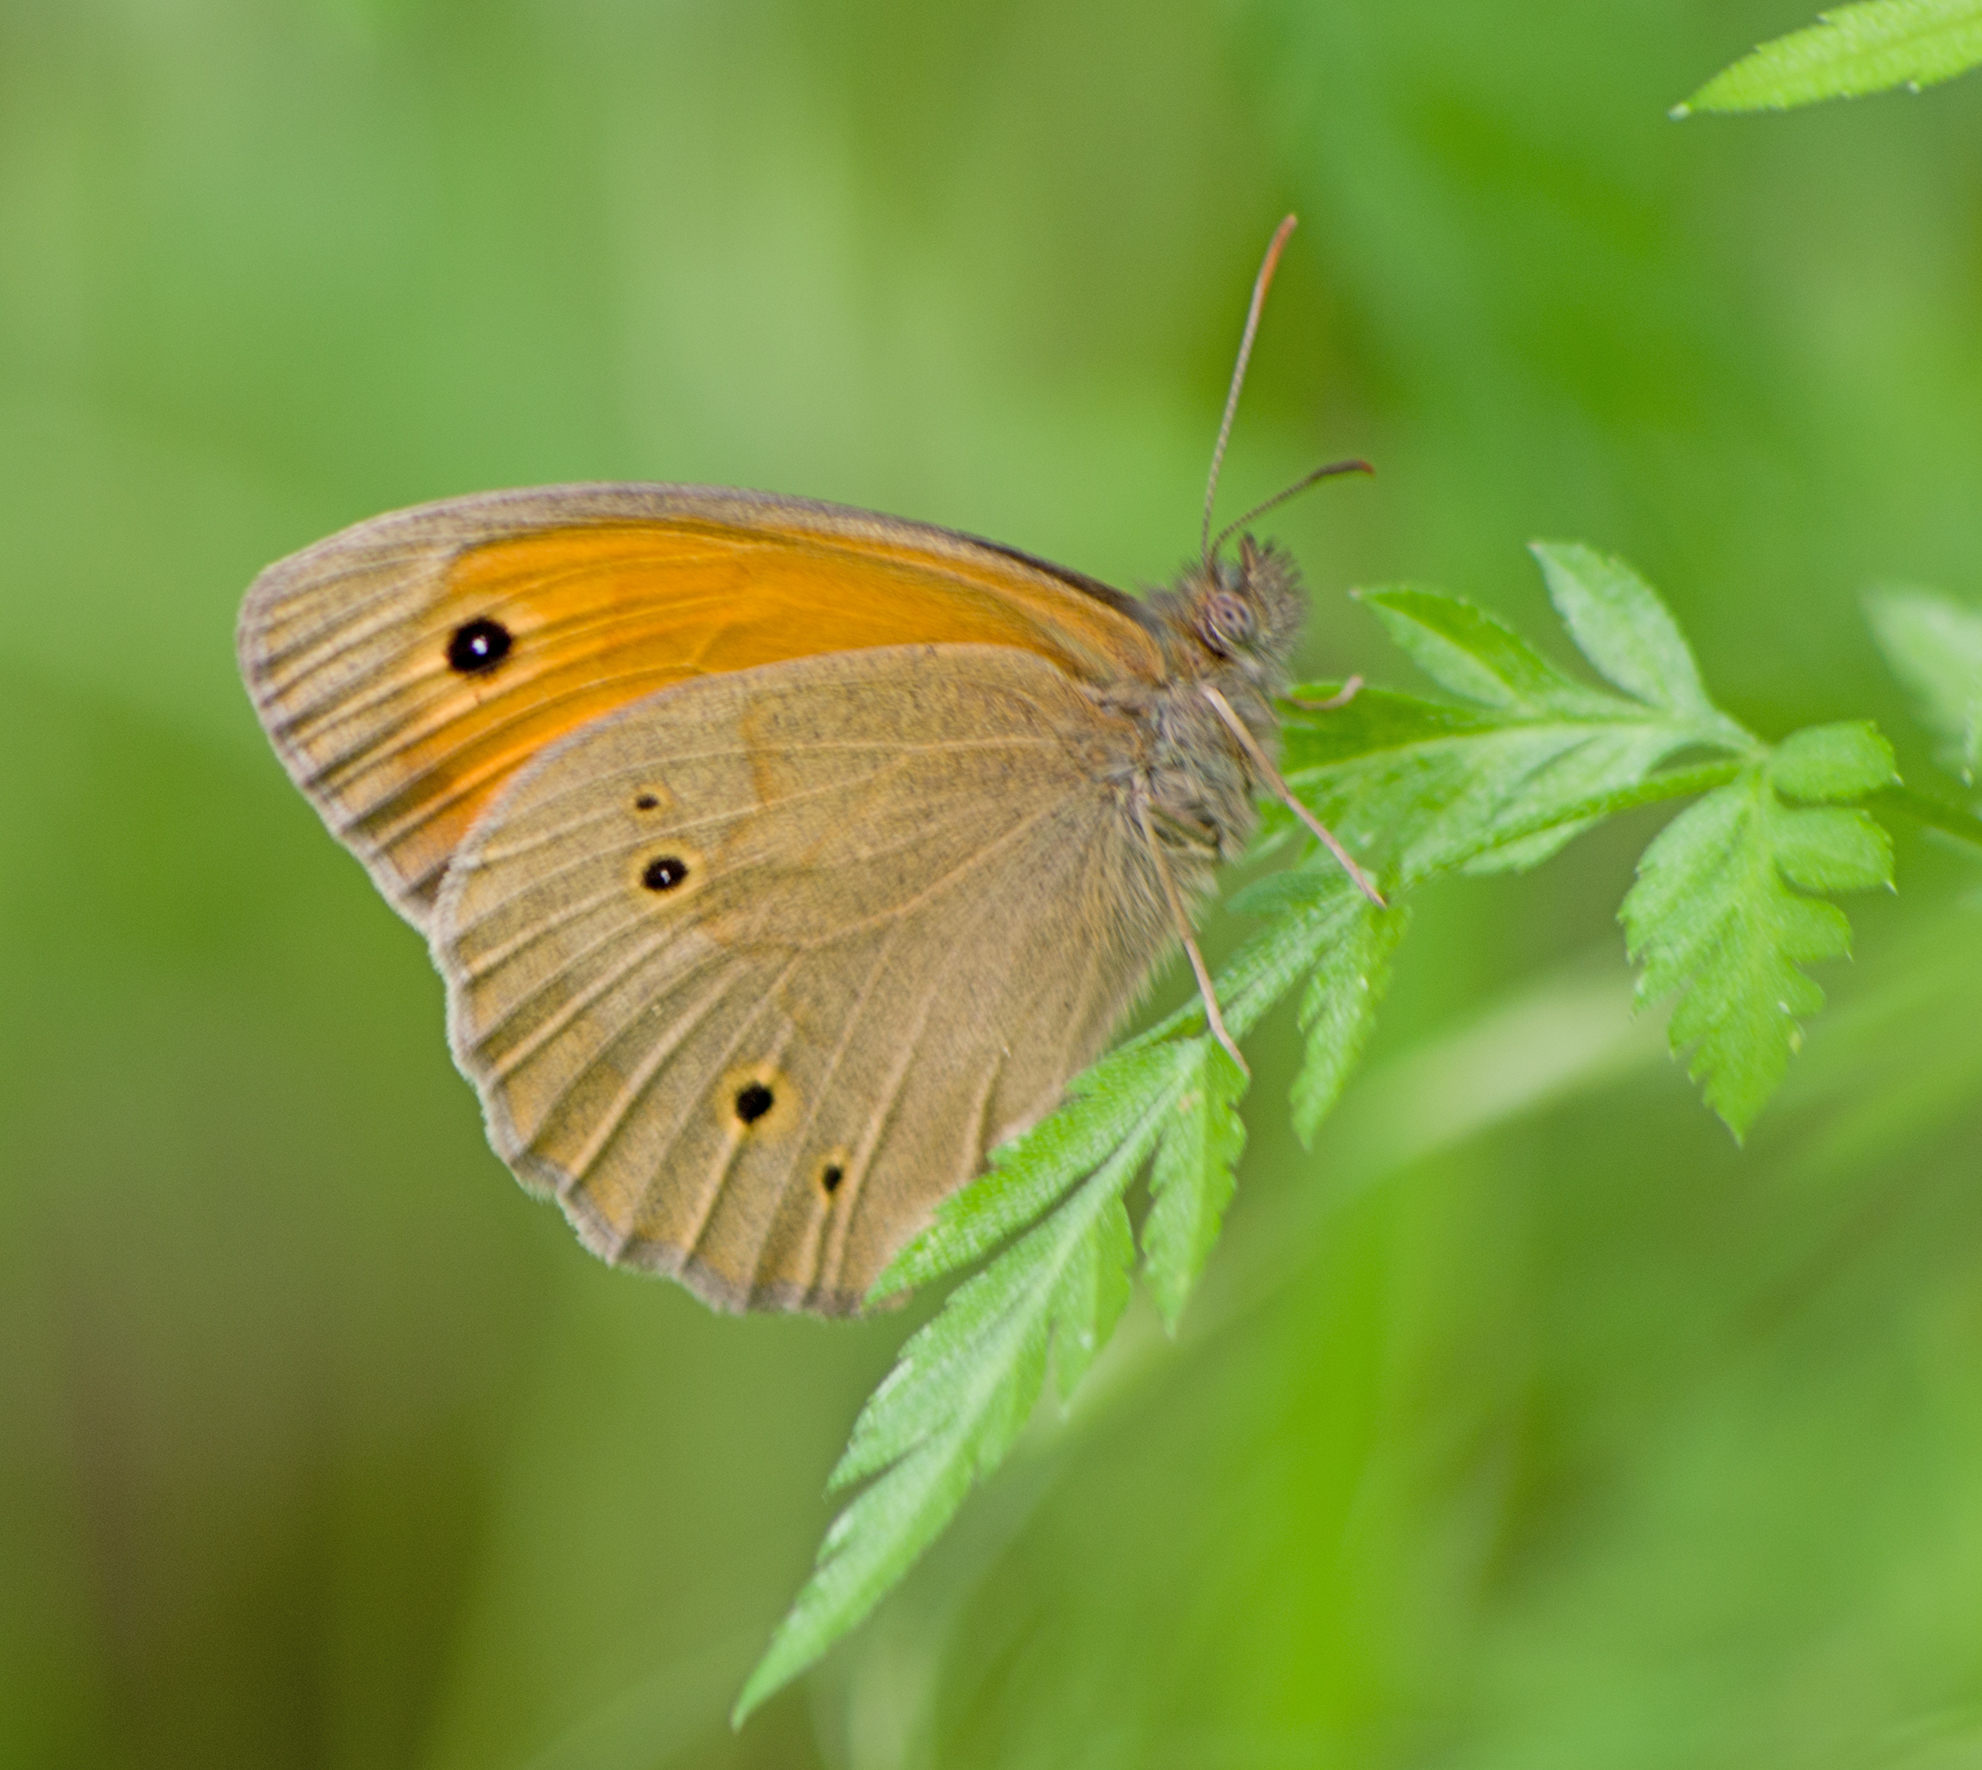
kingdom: Animalia
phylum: Arthropoda
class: Insecta
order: Lepidoptera
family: Nymphalidae
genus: Maniola
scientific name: Maniola jurtina
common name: Meadow brown
